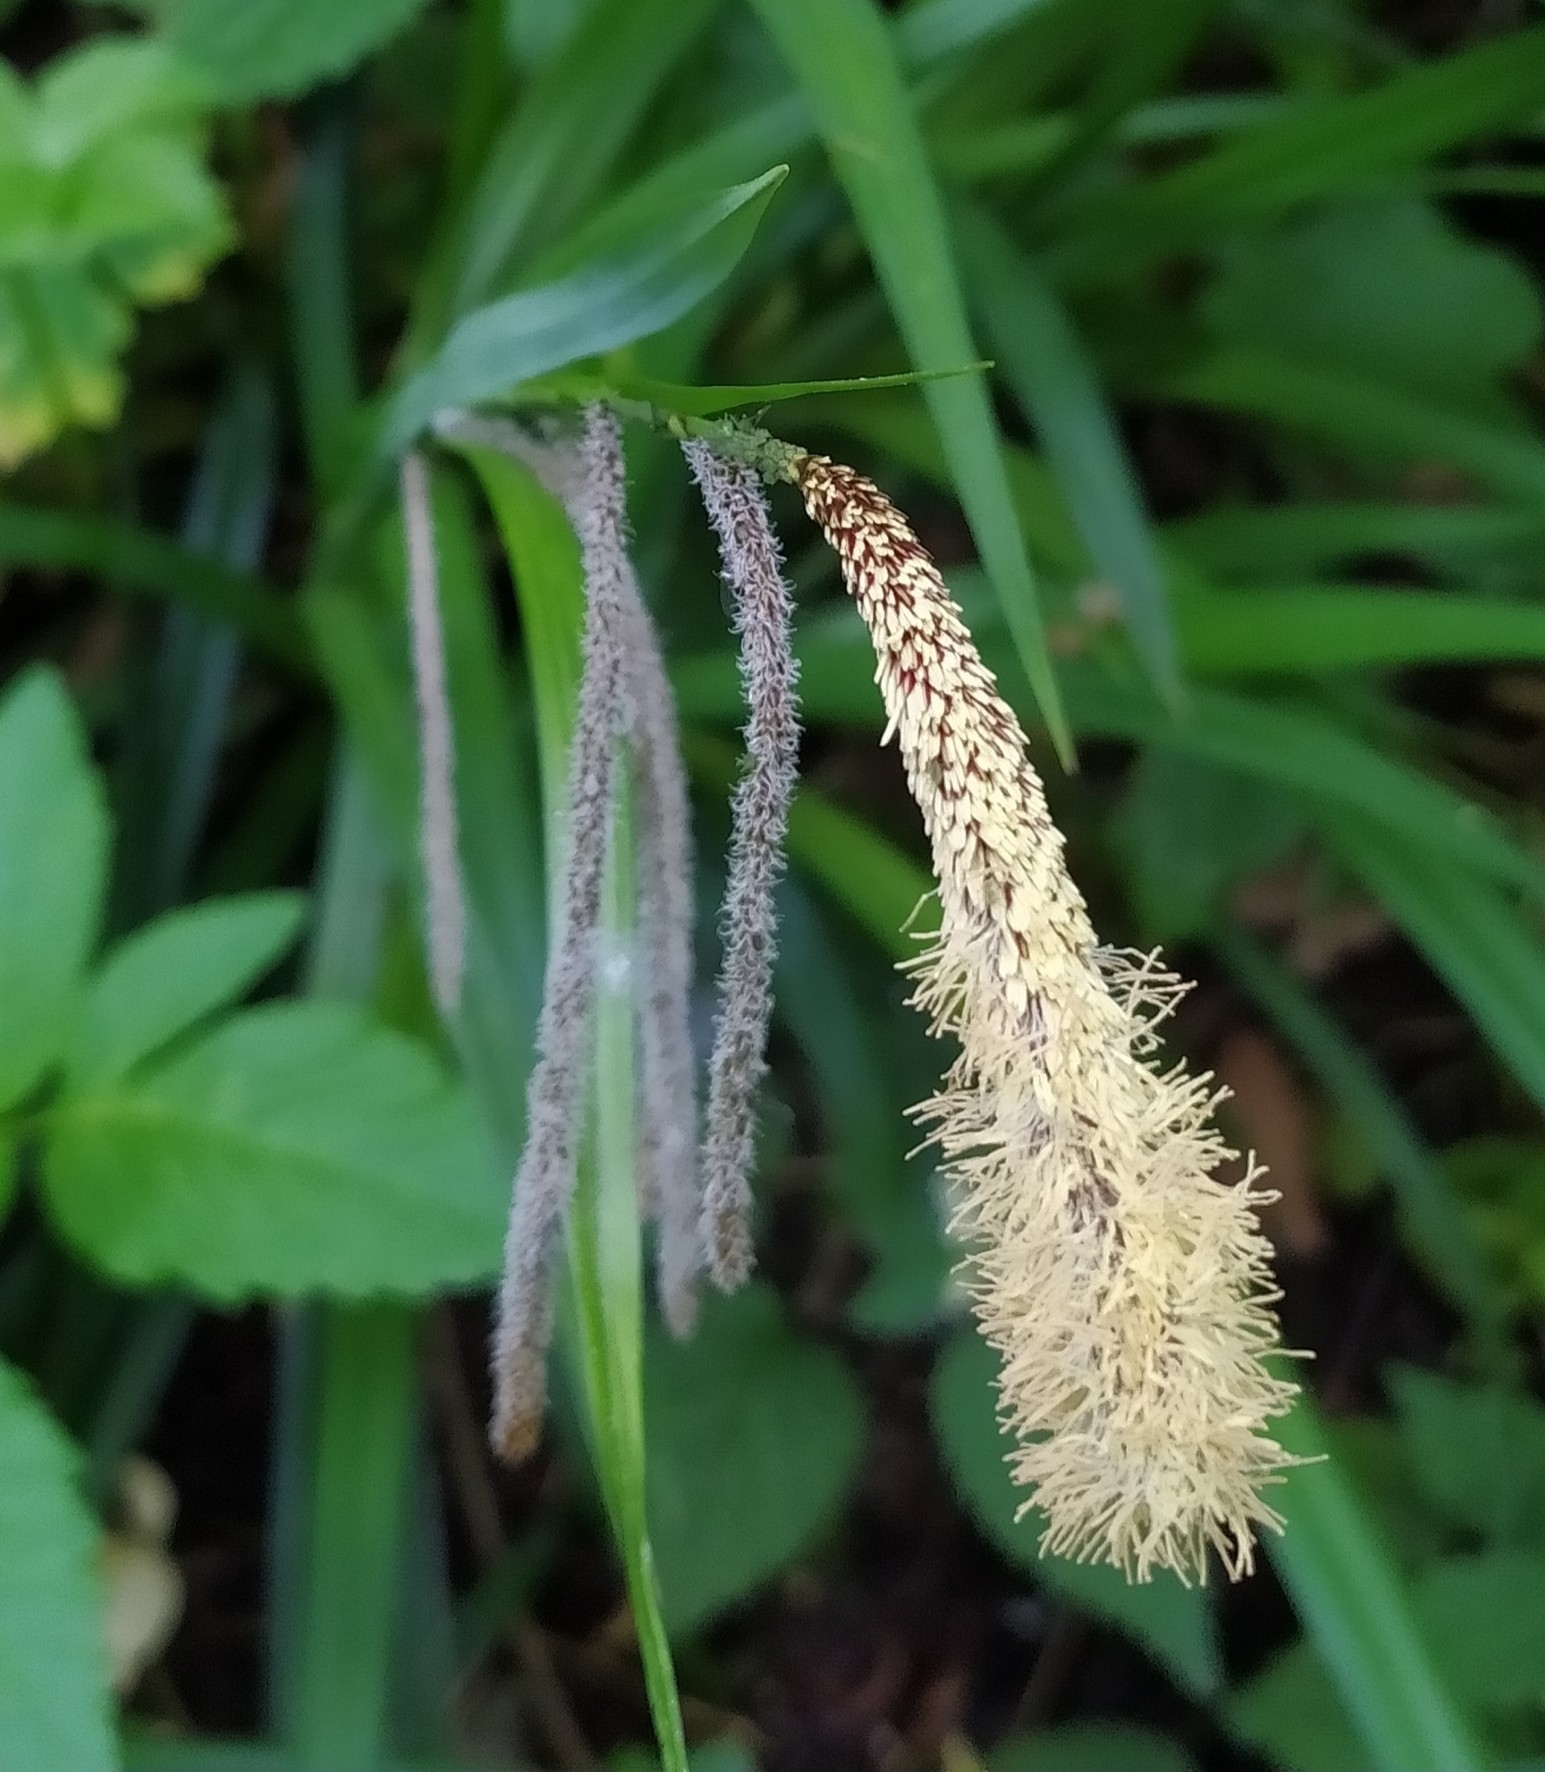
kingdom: Plantae
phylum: Tracheophyta
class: Liliopsida
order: Poales
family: Cyperaceae
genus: Carex
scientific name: Carex pendula
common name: Pendulous sedge
